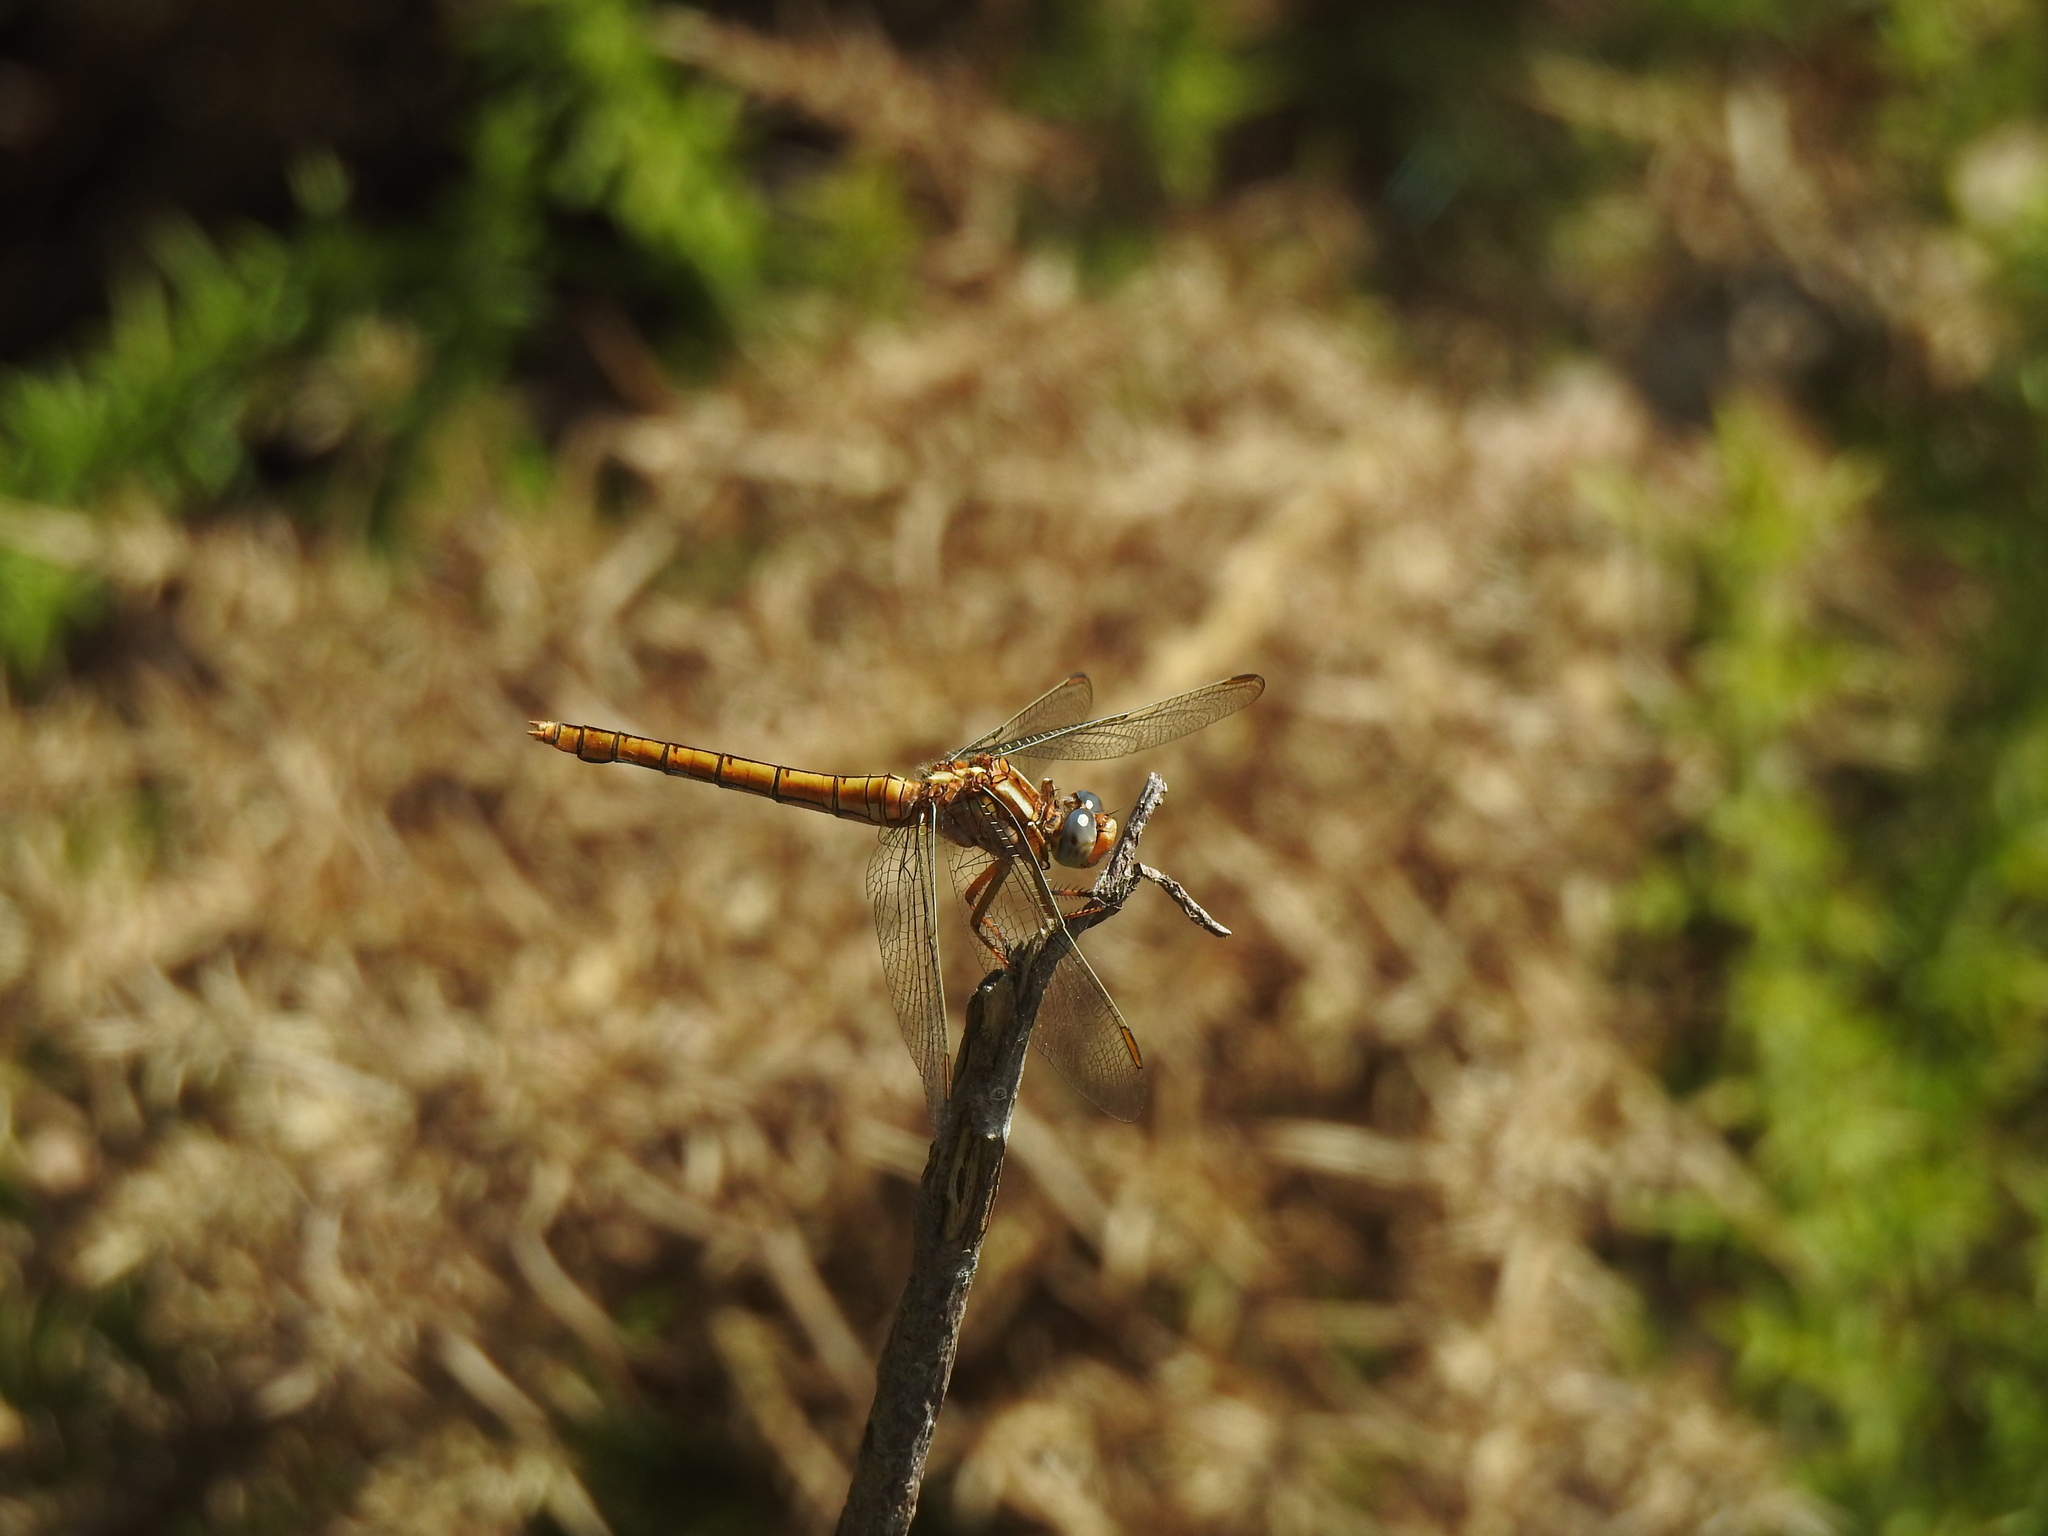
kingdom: Animalia
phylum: Arthropoda
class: Insecta
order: Odonata
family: Libellulidae
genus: Orthetrum
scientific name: Orthetrum coerulescens
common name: Keeled skimmer
